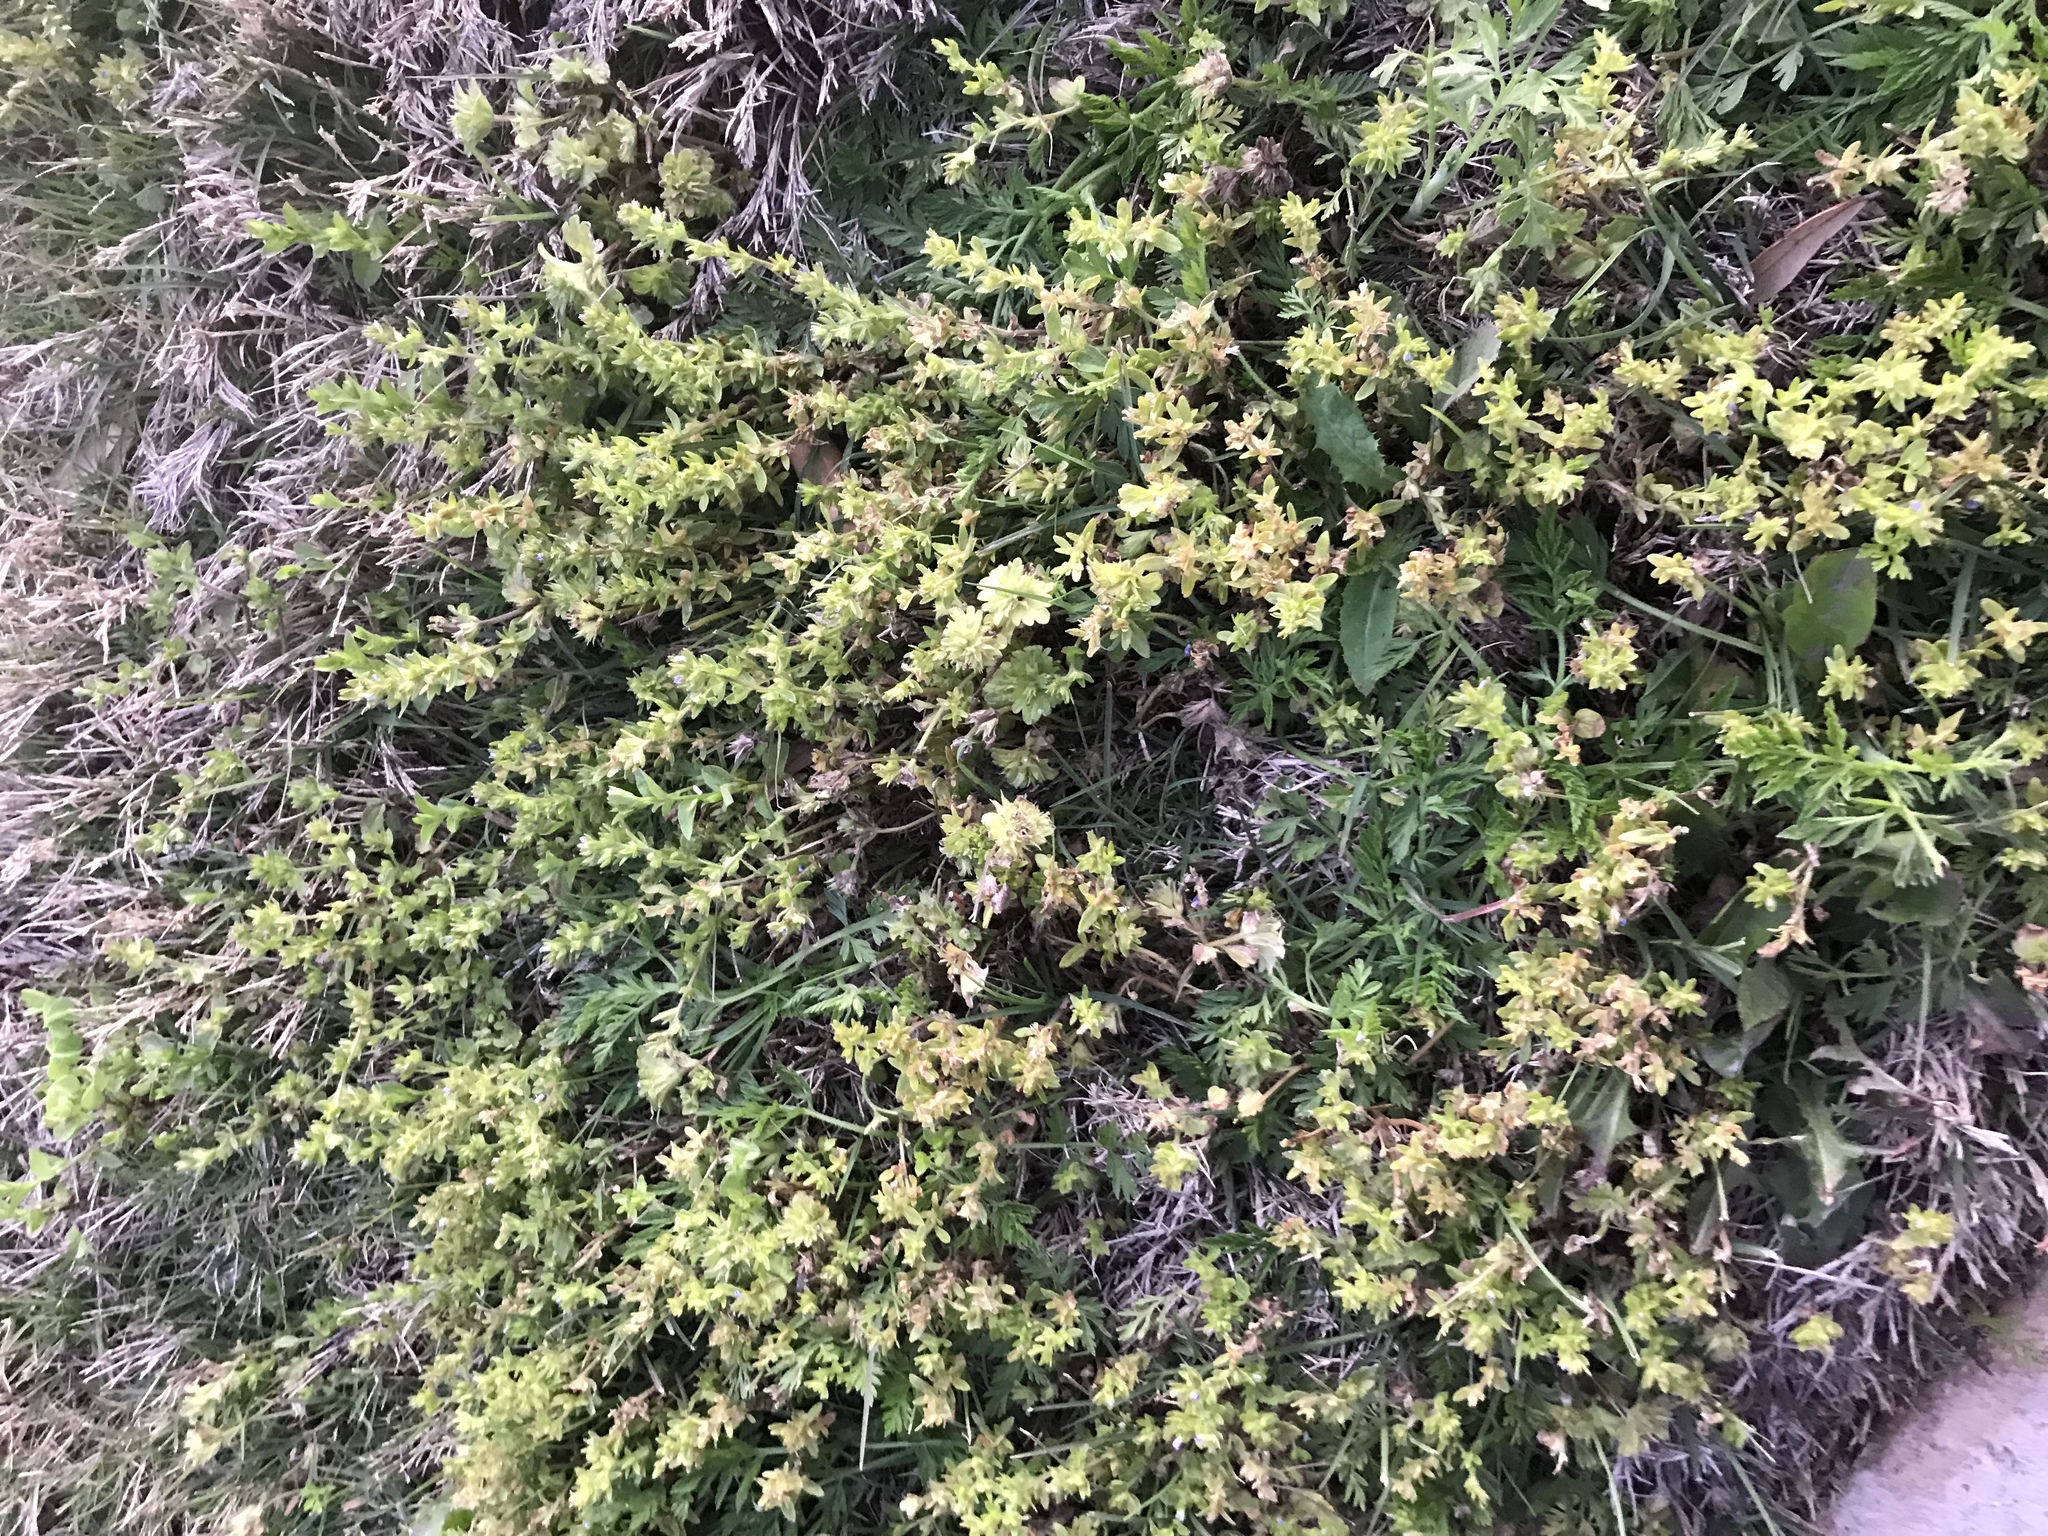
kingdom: Plantae
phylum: Tracheophyta
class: Magnoliopsida
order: Lamiales
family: Plantaginaceae
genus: Veronica
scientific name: Veronica arvensis
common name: Corn speedwell
